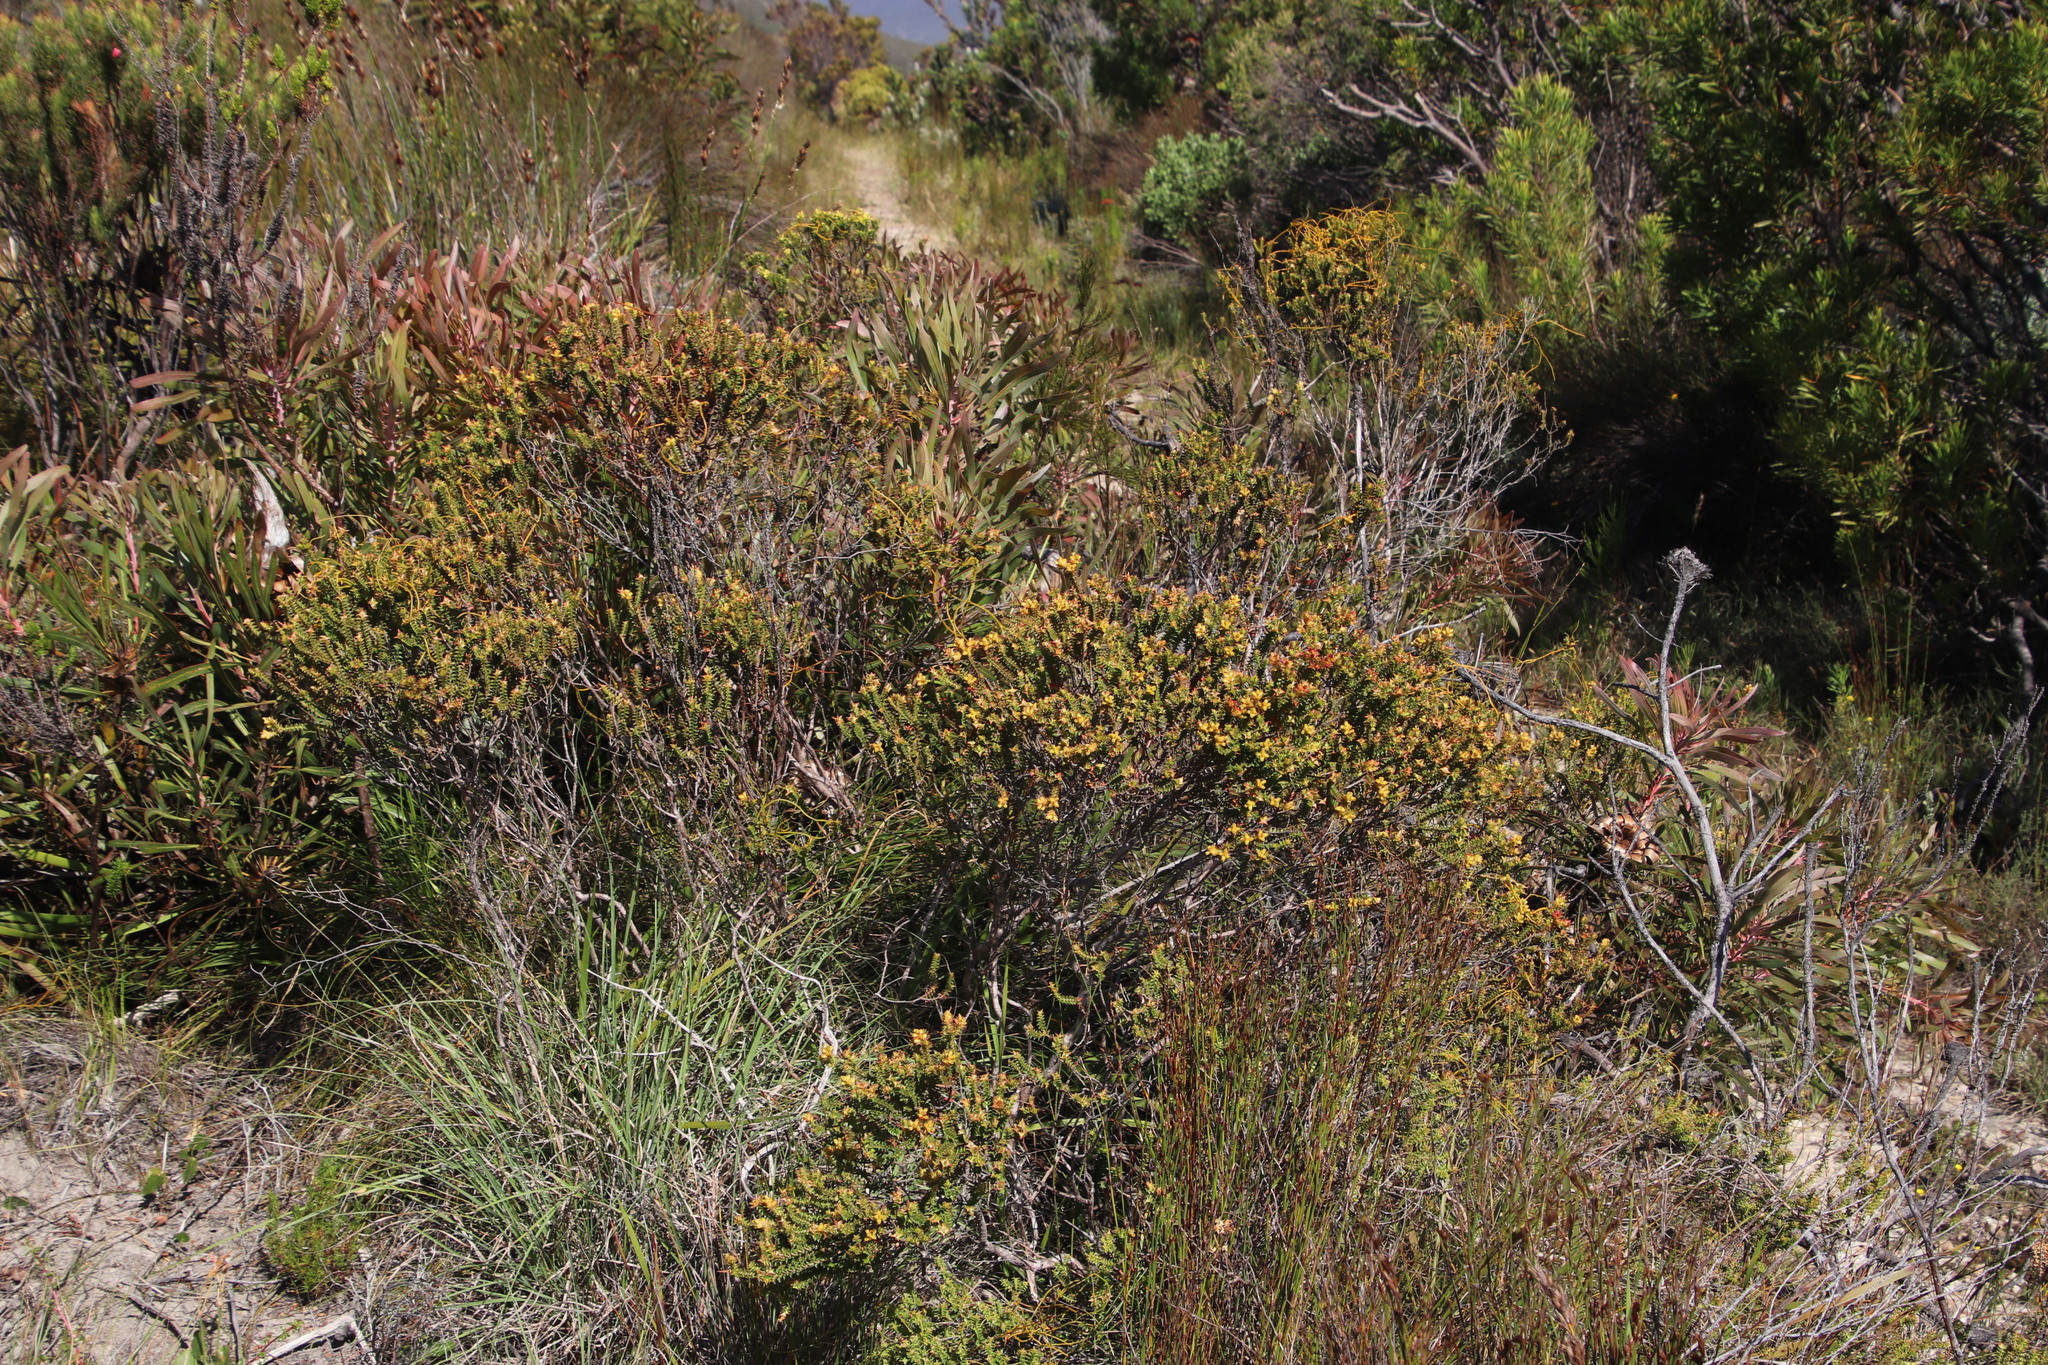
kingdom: Plantae
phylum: Tracheophyta
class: Magnoliopsida
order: Myrtales
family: Penaeaceae
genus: Penaea
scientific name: Penaea mucronata
